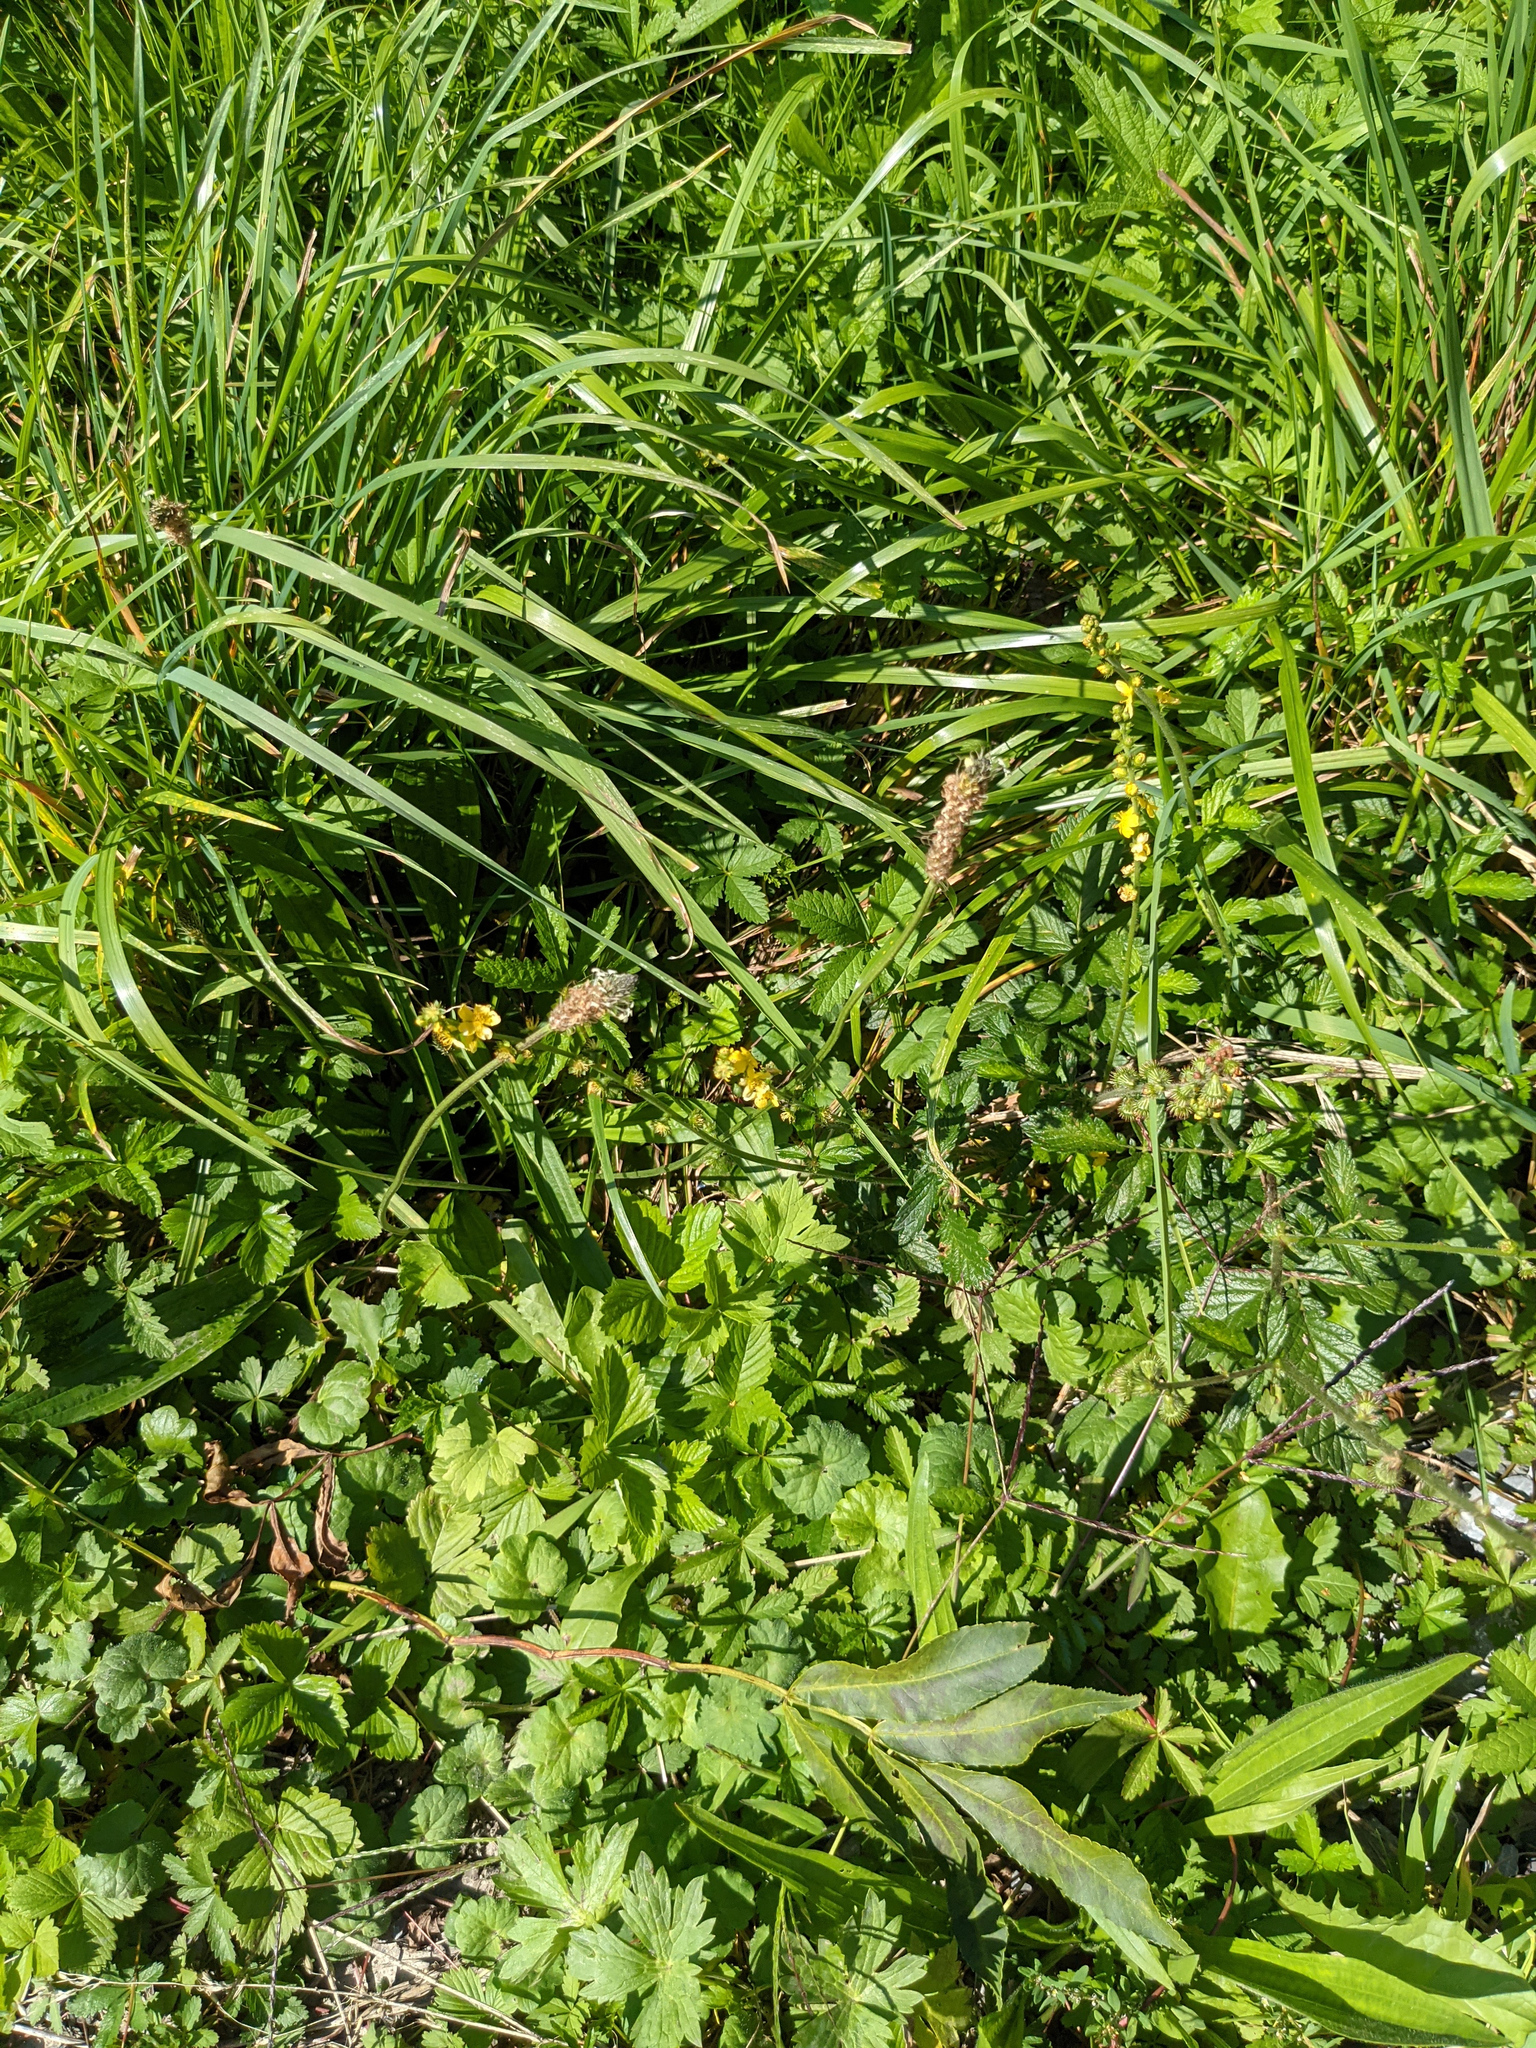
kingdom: Plantae
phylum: Tracheophyta
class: Magnoliopsida
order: Rosales
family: Rosaceae
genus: Agrimonia
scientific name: Agrimonia eupatoria
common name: Agrimony
